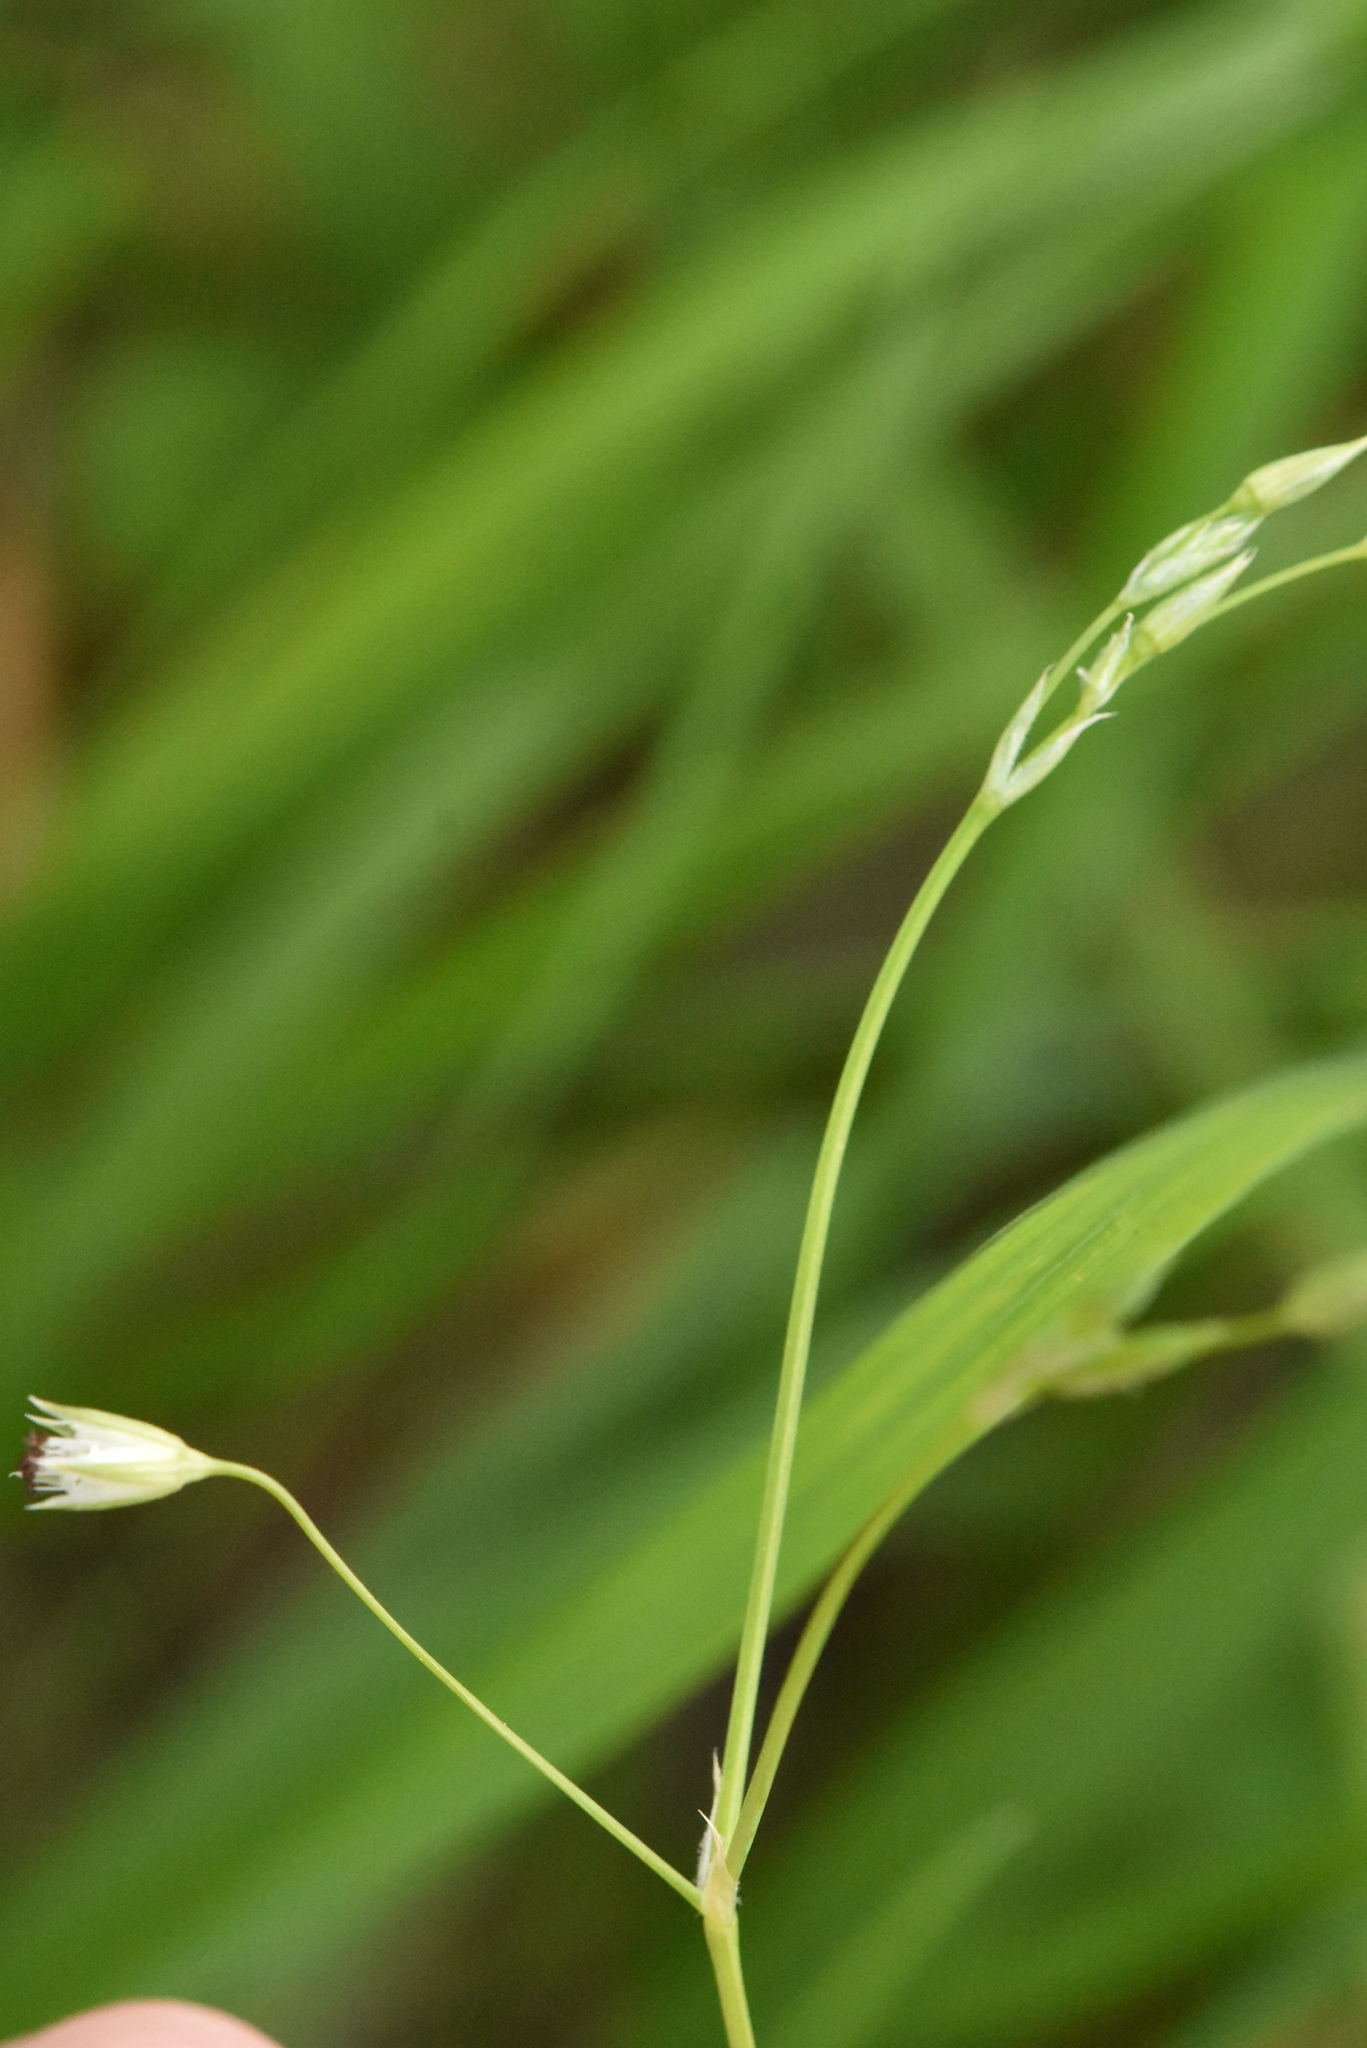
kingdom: Plantae
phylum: Tracheophyta
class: Magnoliopsida
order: Caryophyllales
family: Caryophyllaceae
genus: Stellaria
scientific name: Stellaria longifolia
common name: Long-leaved chickweed
